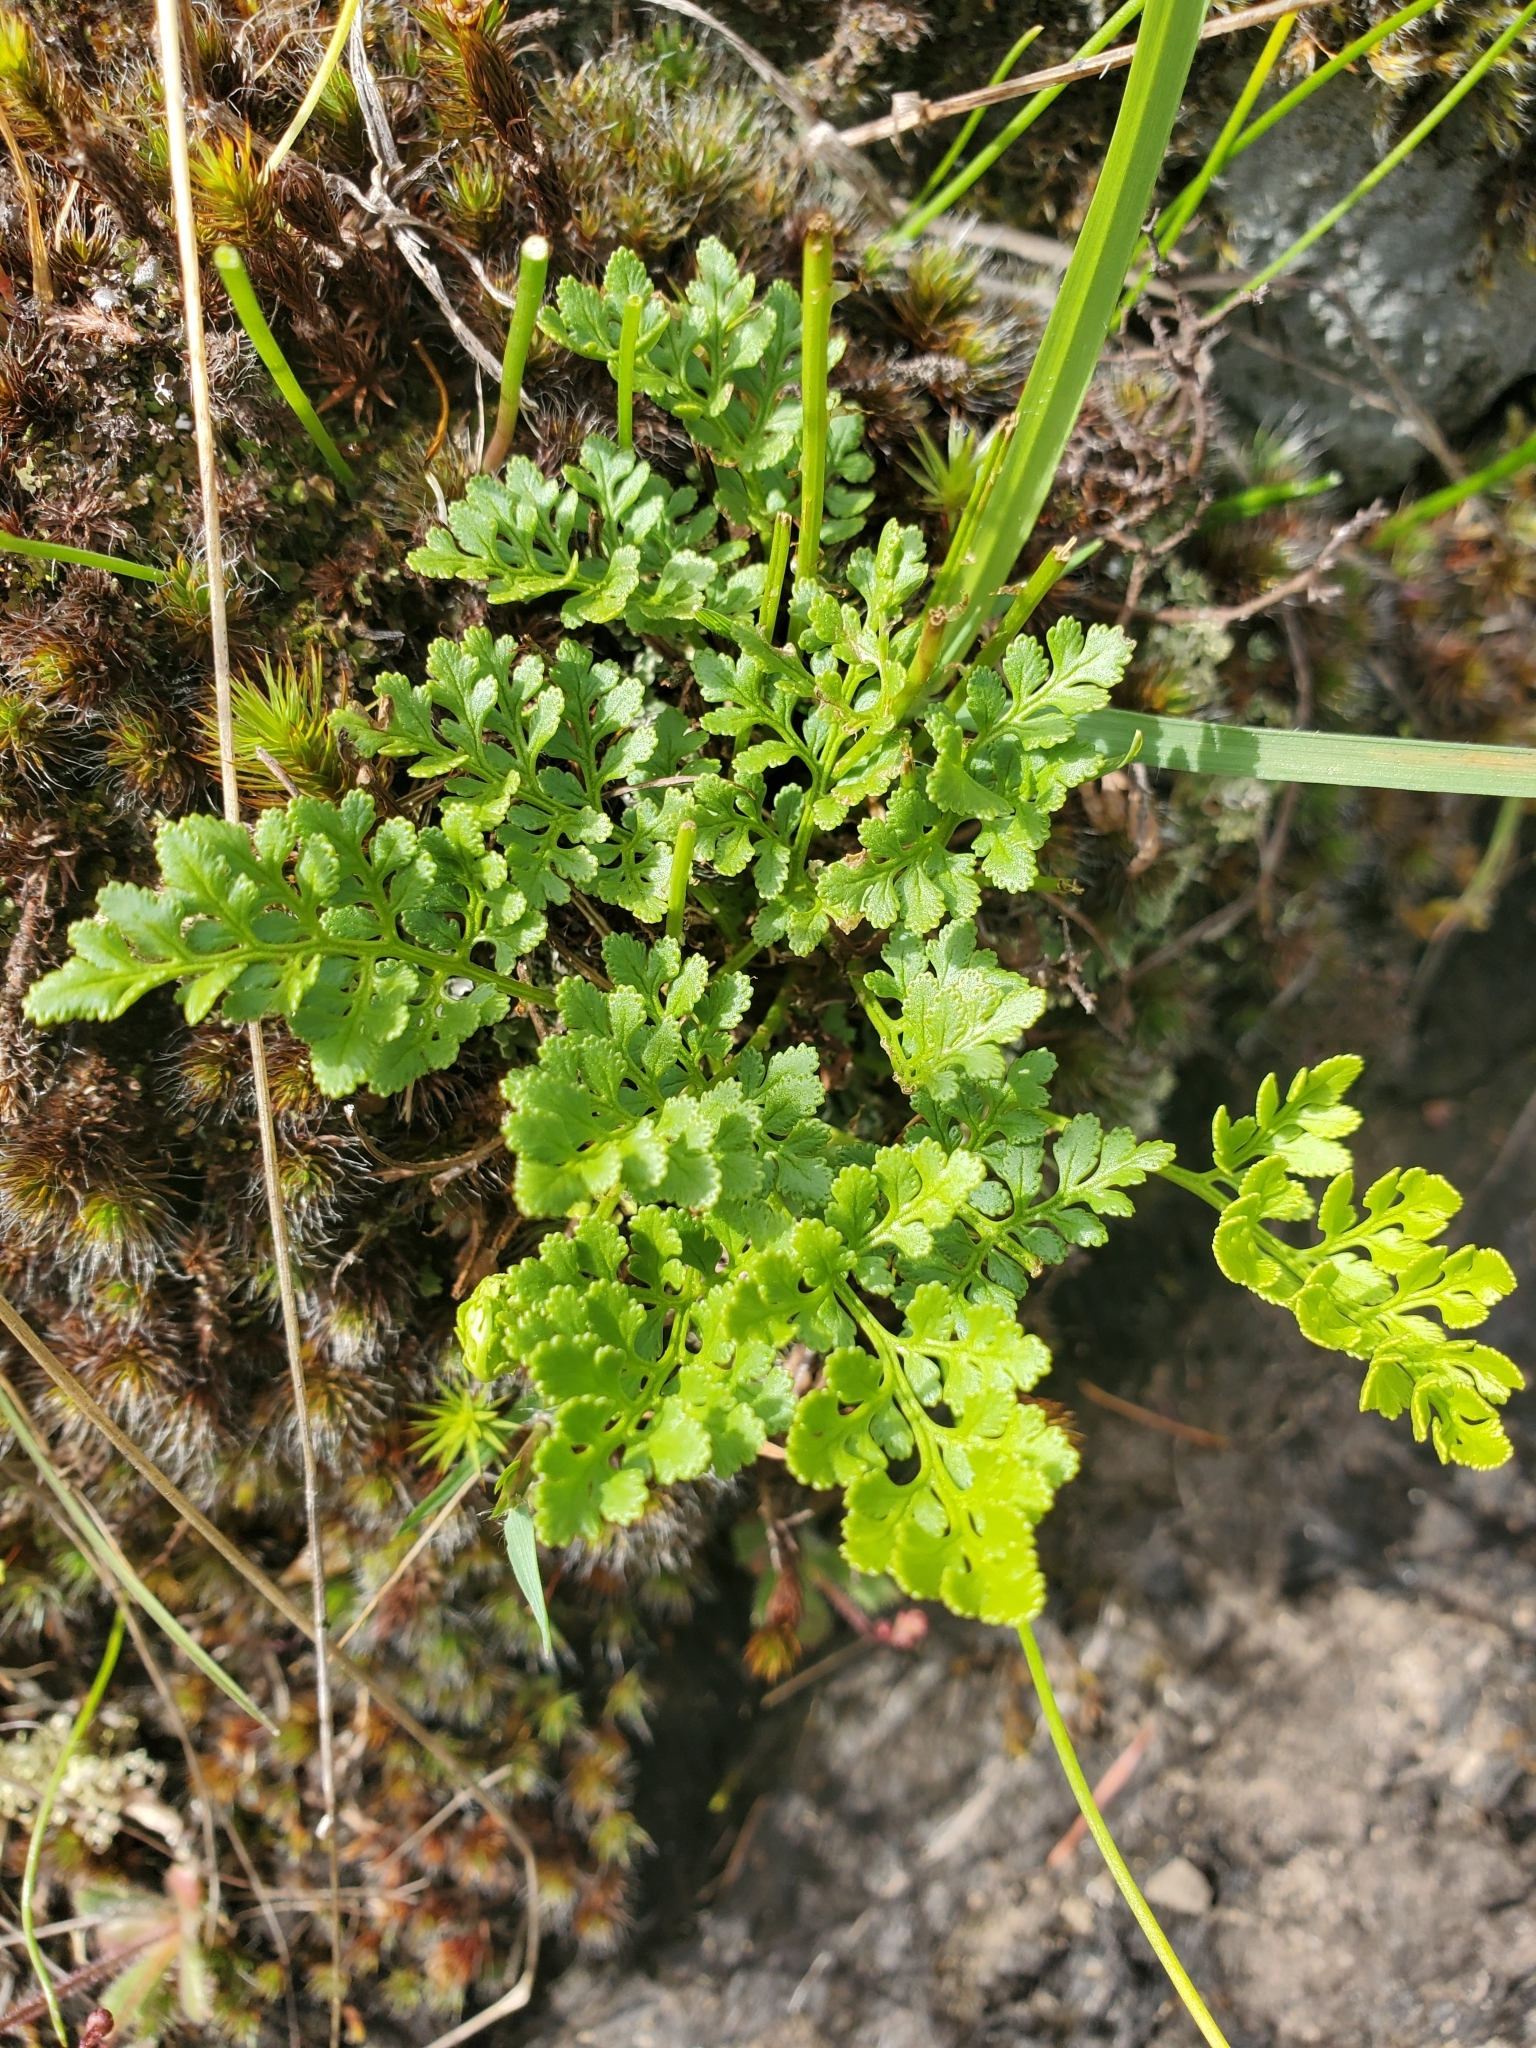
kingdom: Plantae
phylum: Tracheophyta
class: Polypodiopsida
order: Polypodiales
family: Pteridaceae
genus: Cryptogramma
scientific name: Cryptogramma acrostichoides
